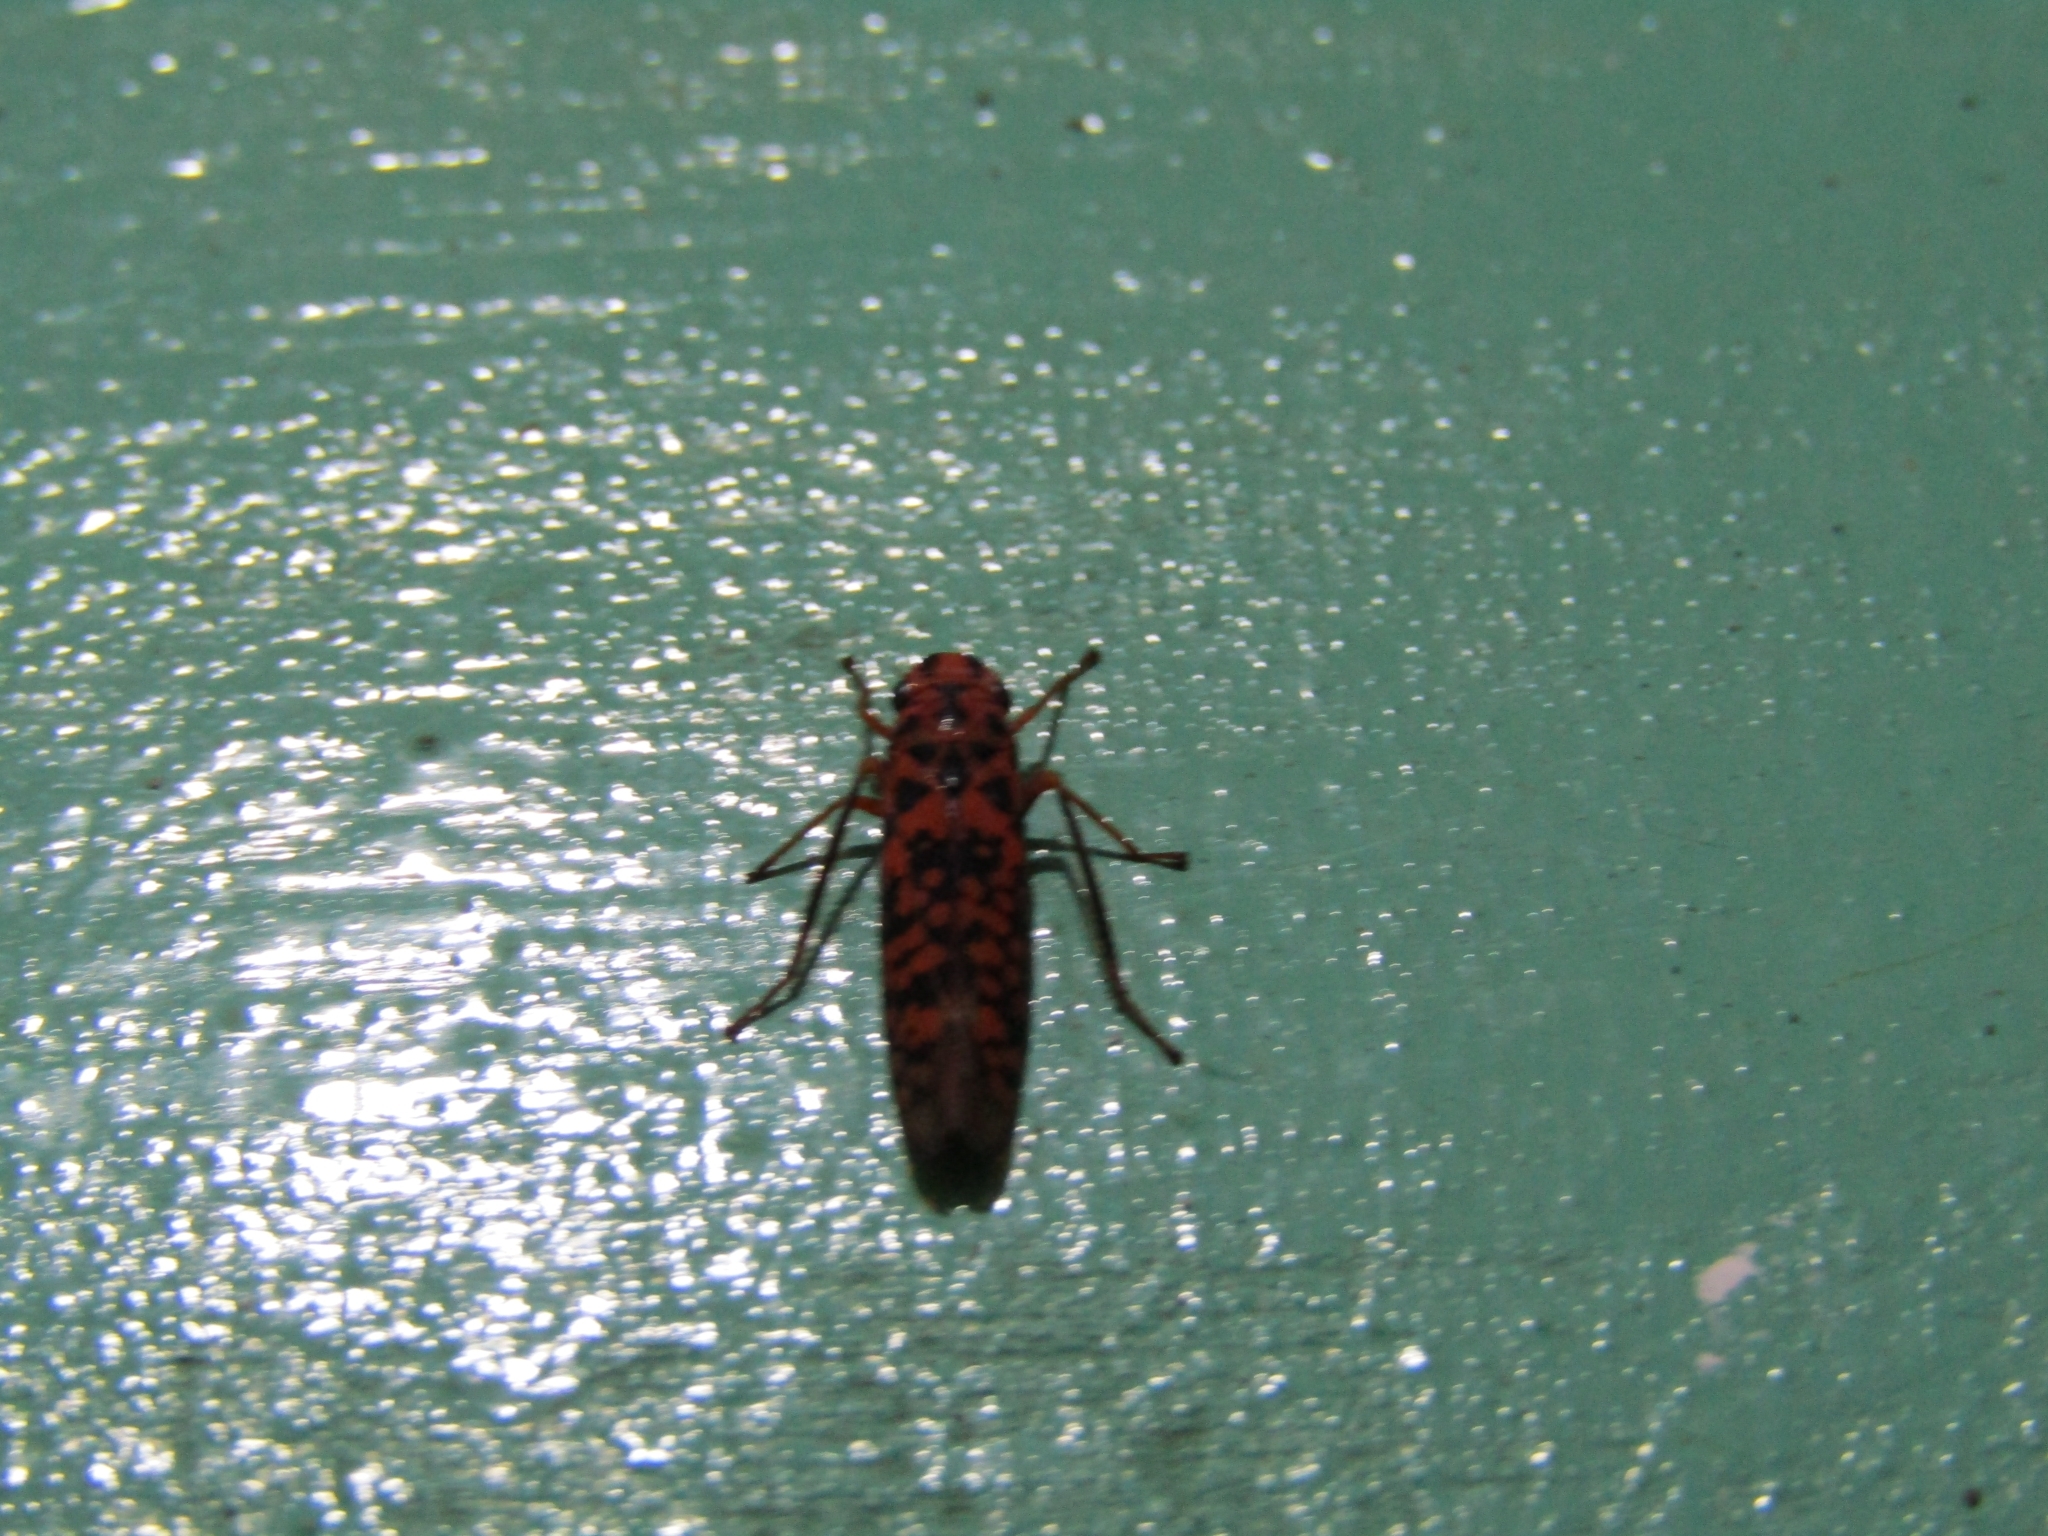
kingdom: Animalia
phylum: Arthropoda
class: Insecta
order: Hemiptera
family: Cicadellidae
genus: Pawiloma
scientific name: Pawiloma victima
